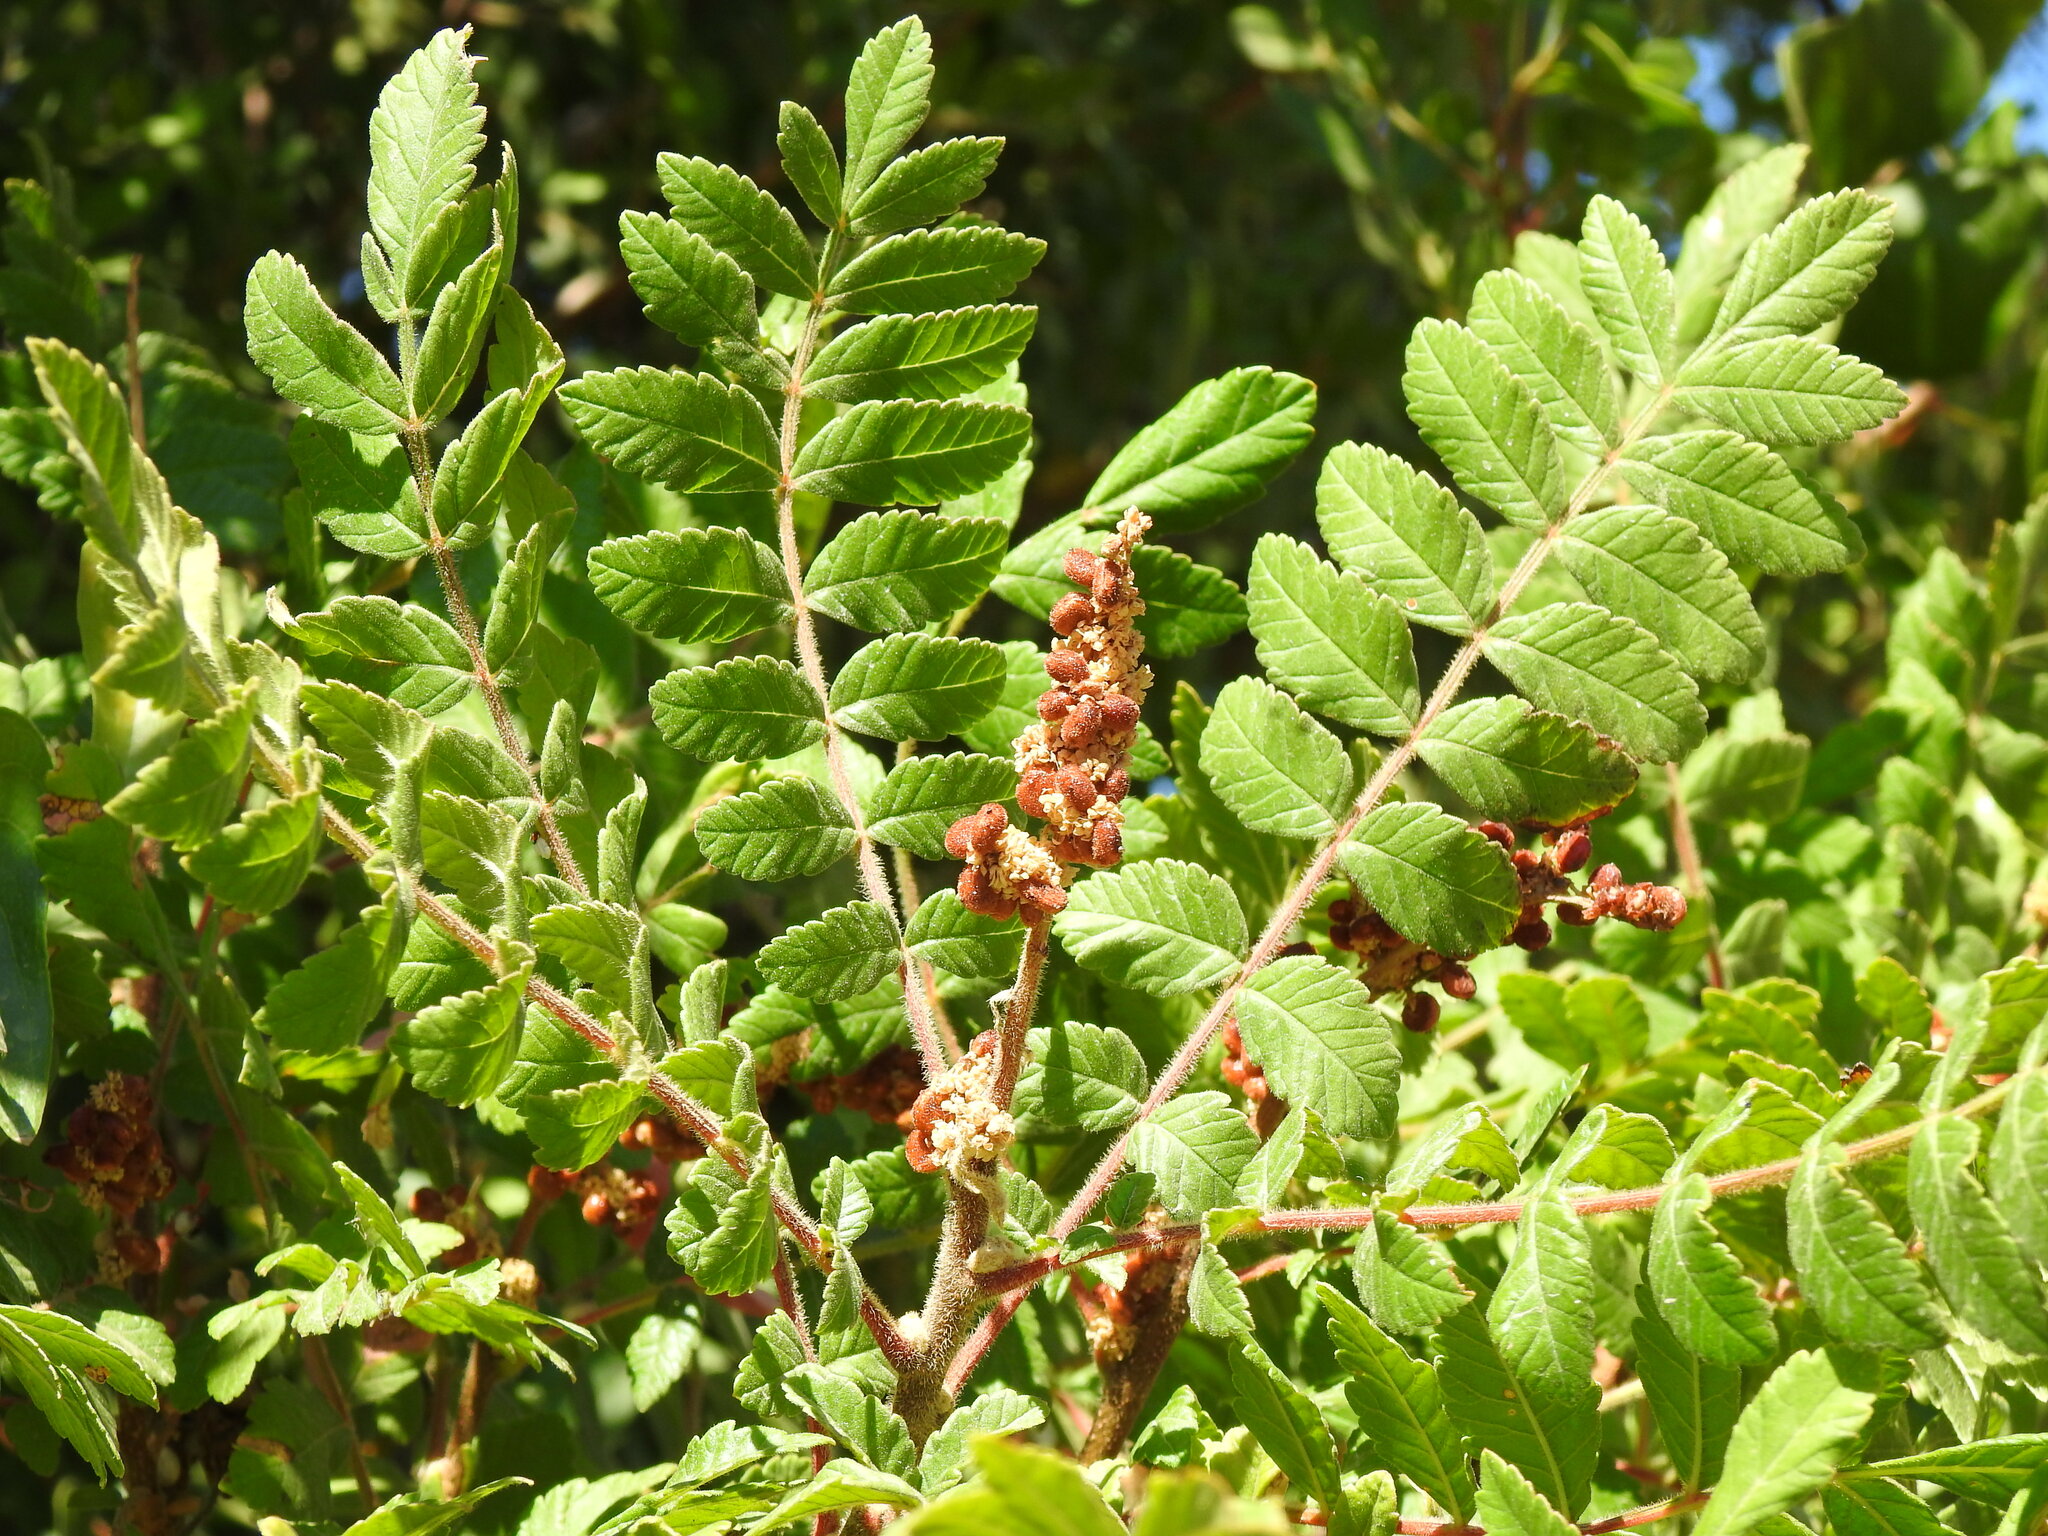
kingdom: Plantae
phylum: Tracheophyta
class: Magnoliopsida
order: Sapindales
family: Anacardiaceae
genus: Rhus
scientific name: Rhus coriaria
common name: Tanner's sumach
